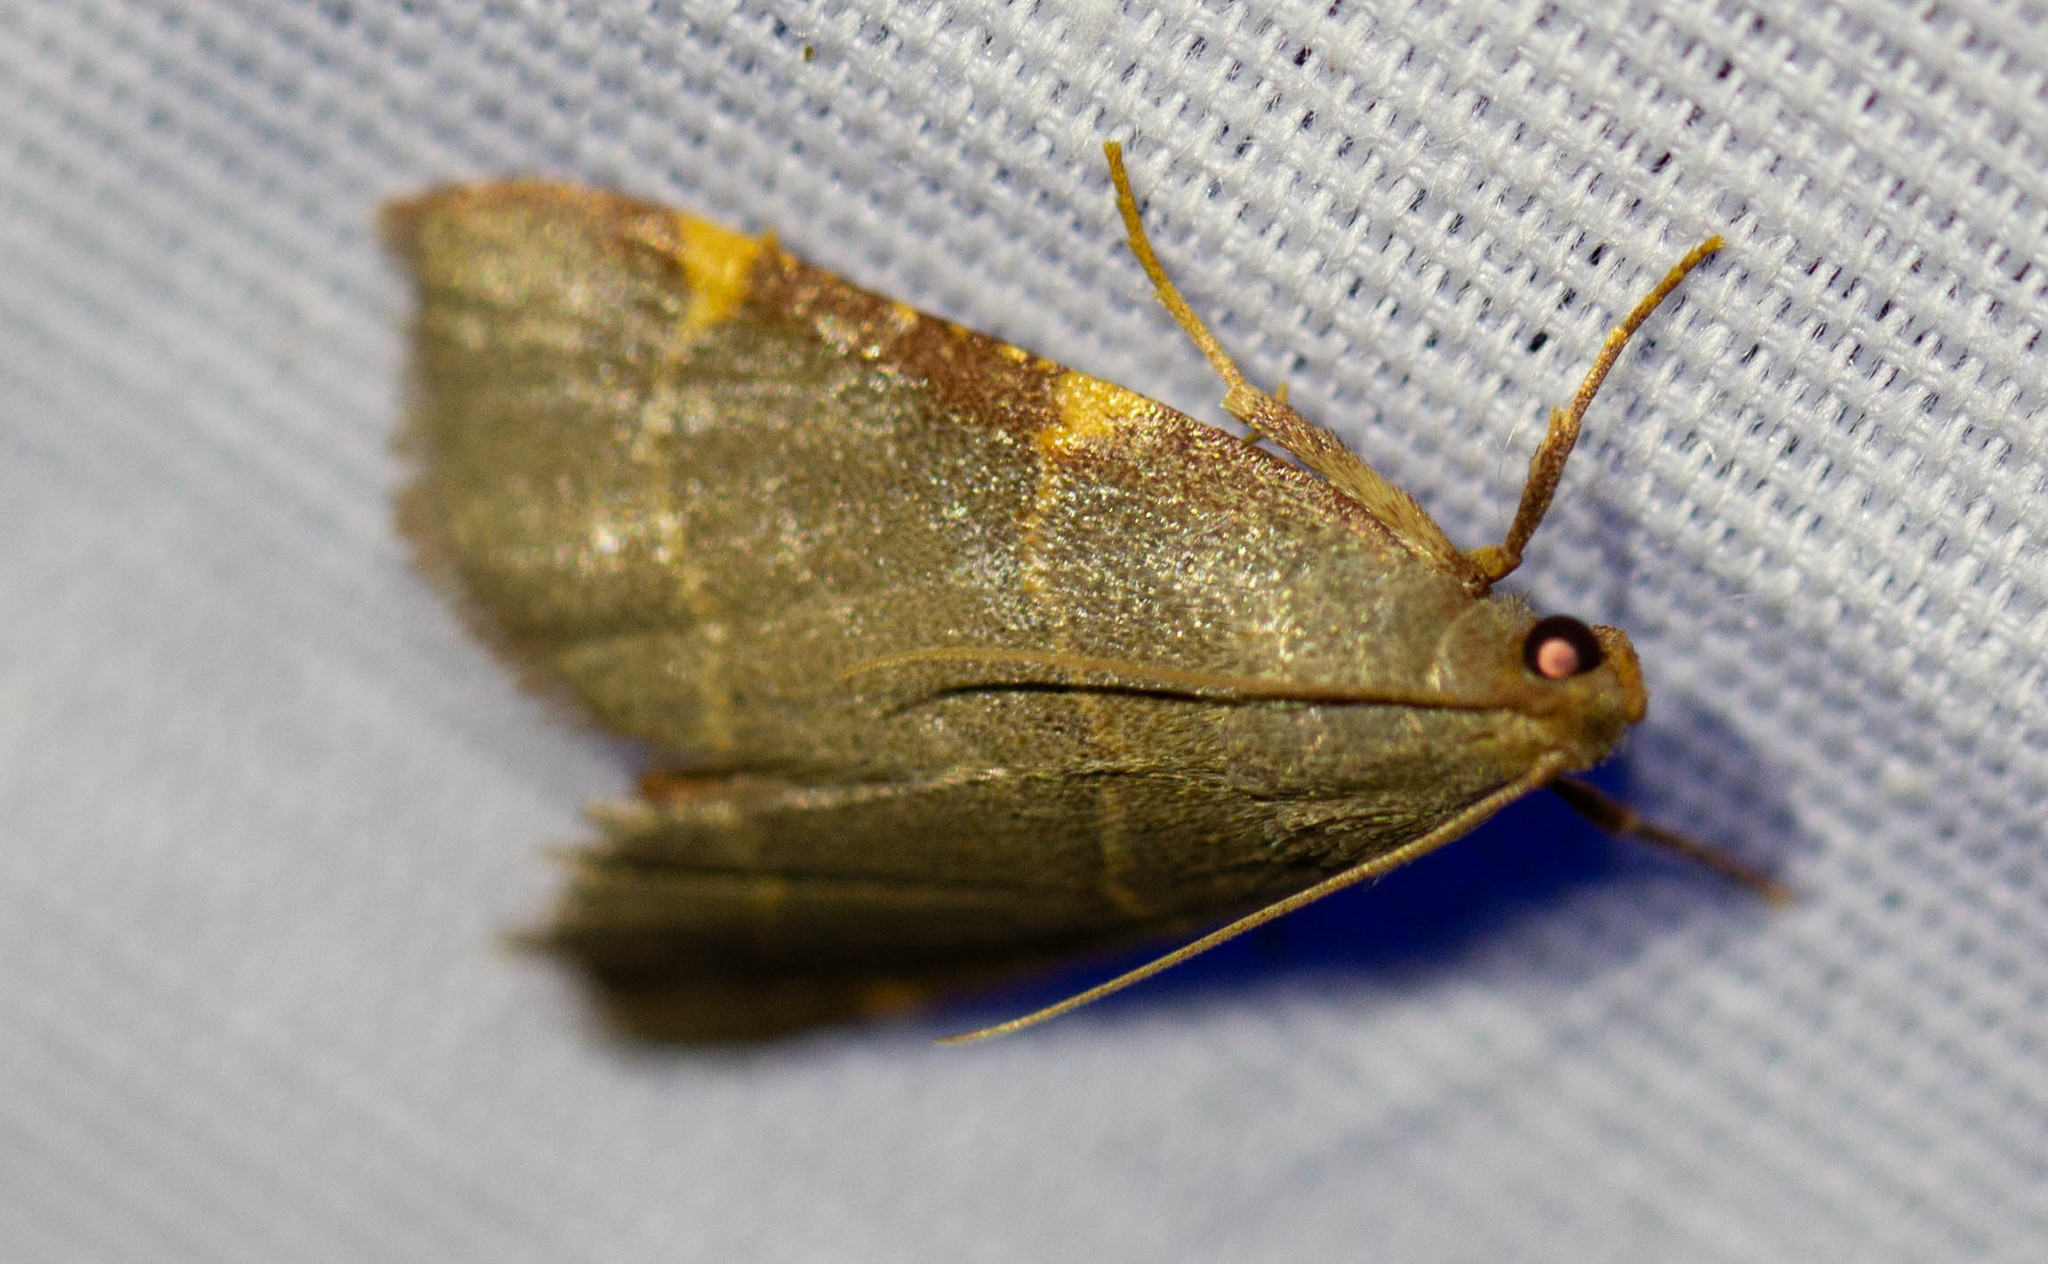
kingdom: Animalia
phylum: Arthropoda
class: Insecta
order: Lepidoptera
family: Pyralidae
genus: Hypsopygia
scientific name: Hypsopygia binodulalis
